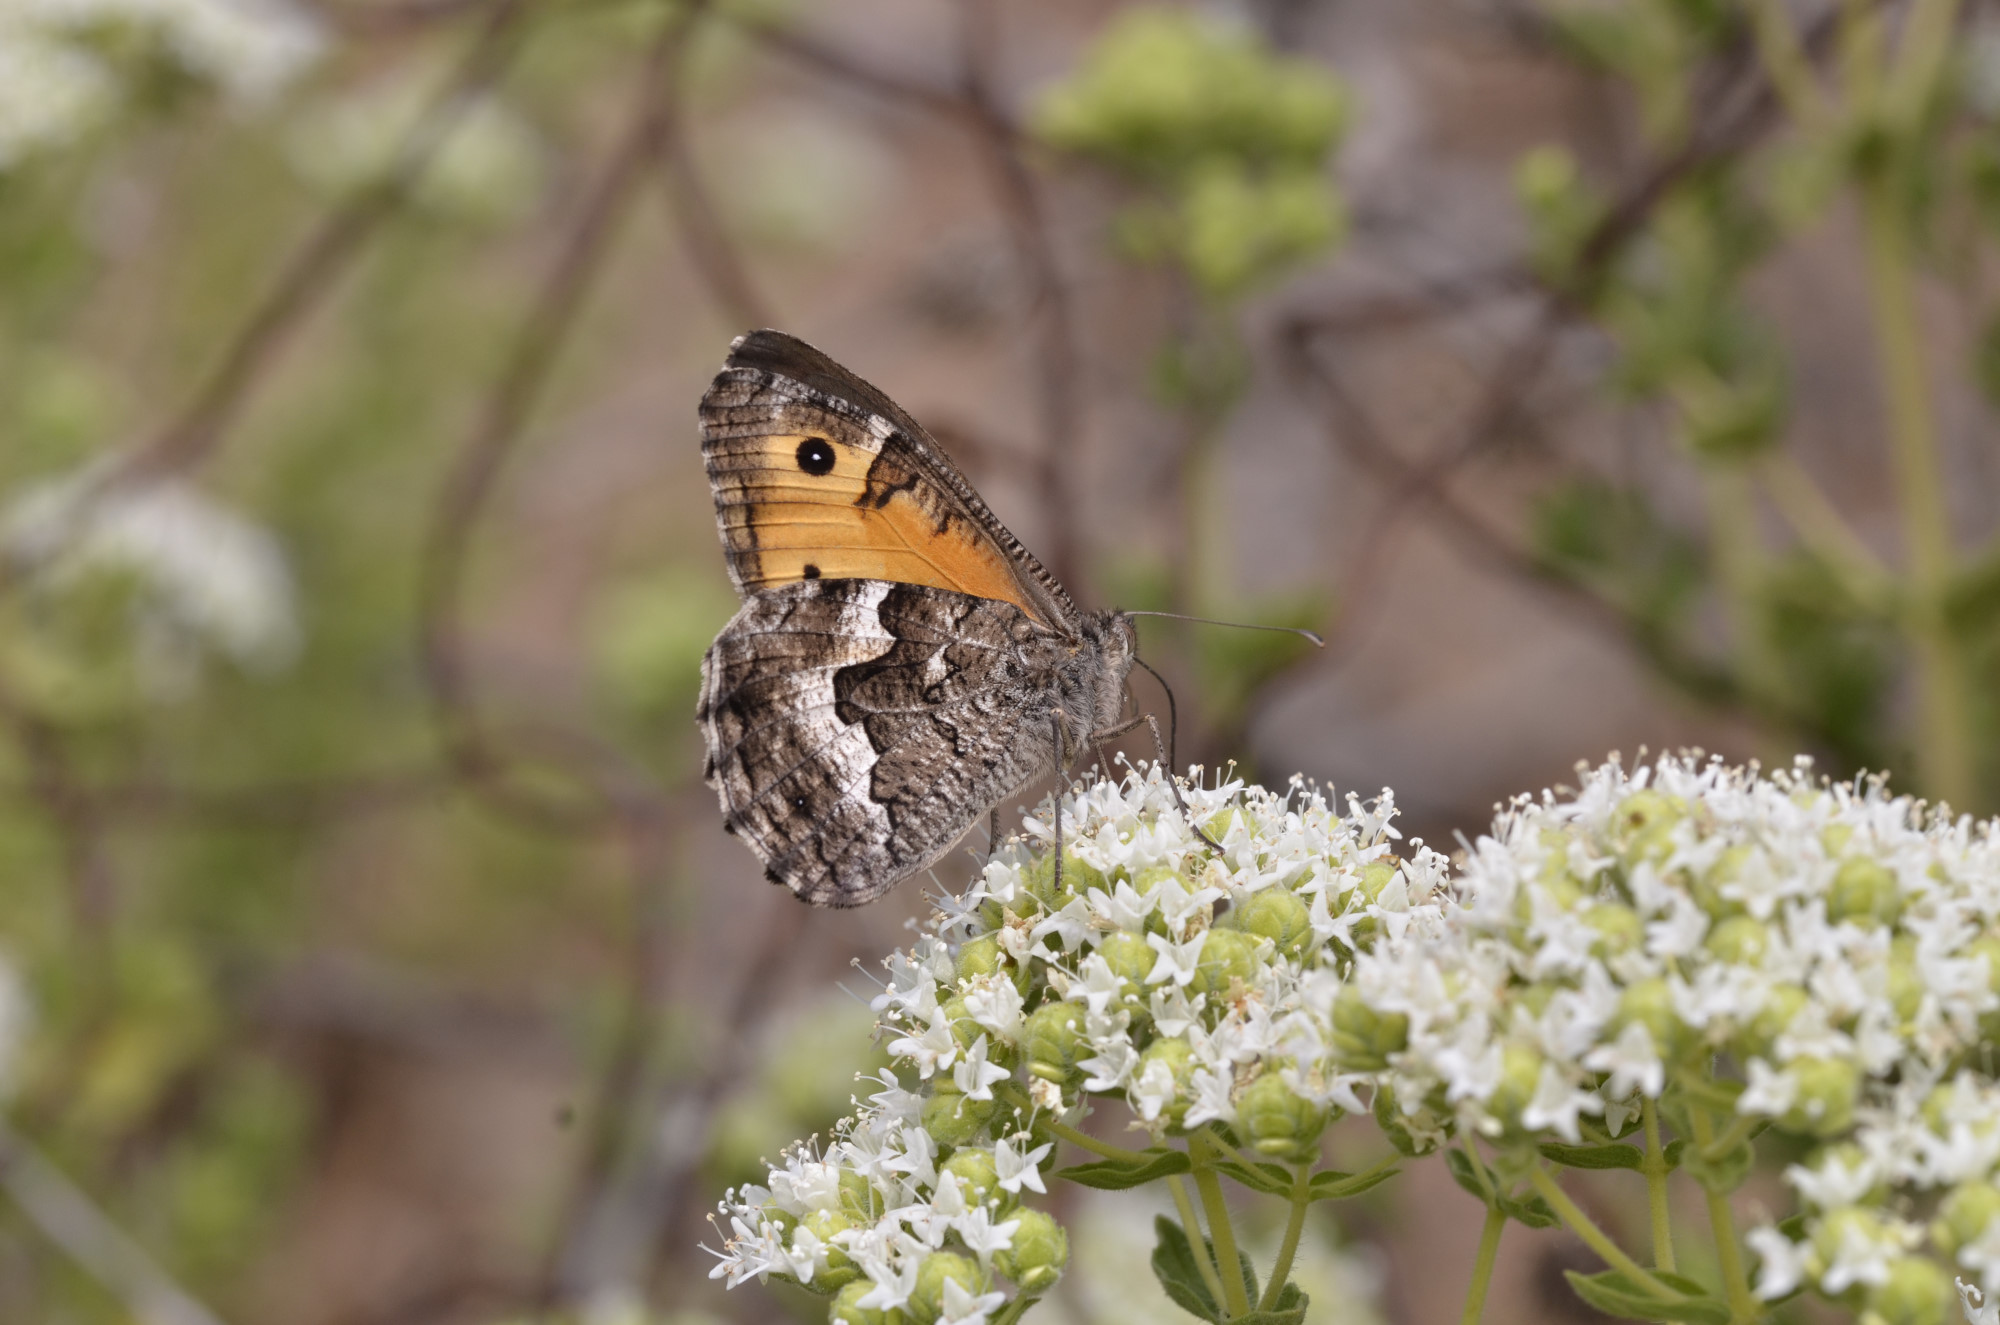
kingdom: Animalia
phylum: Arthropoda
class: Insecta
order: Lepidoptera
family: Nymphalidae
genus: Hipparchia
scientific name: Hipparchia cretica
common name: Cretan grayling
